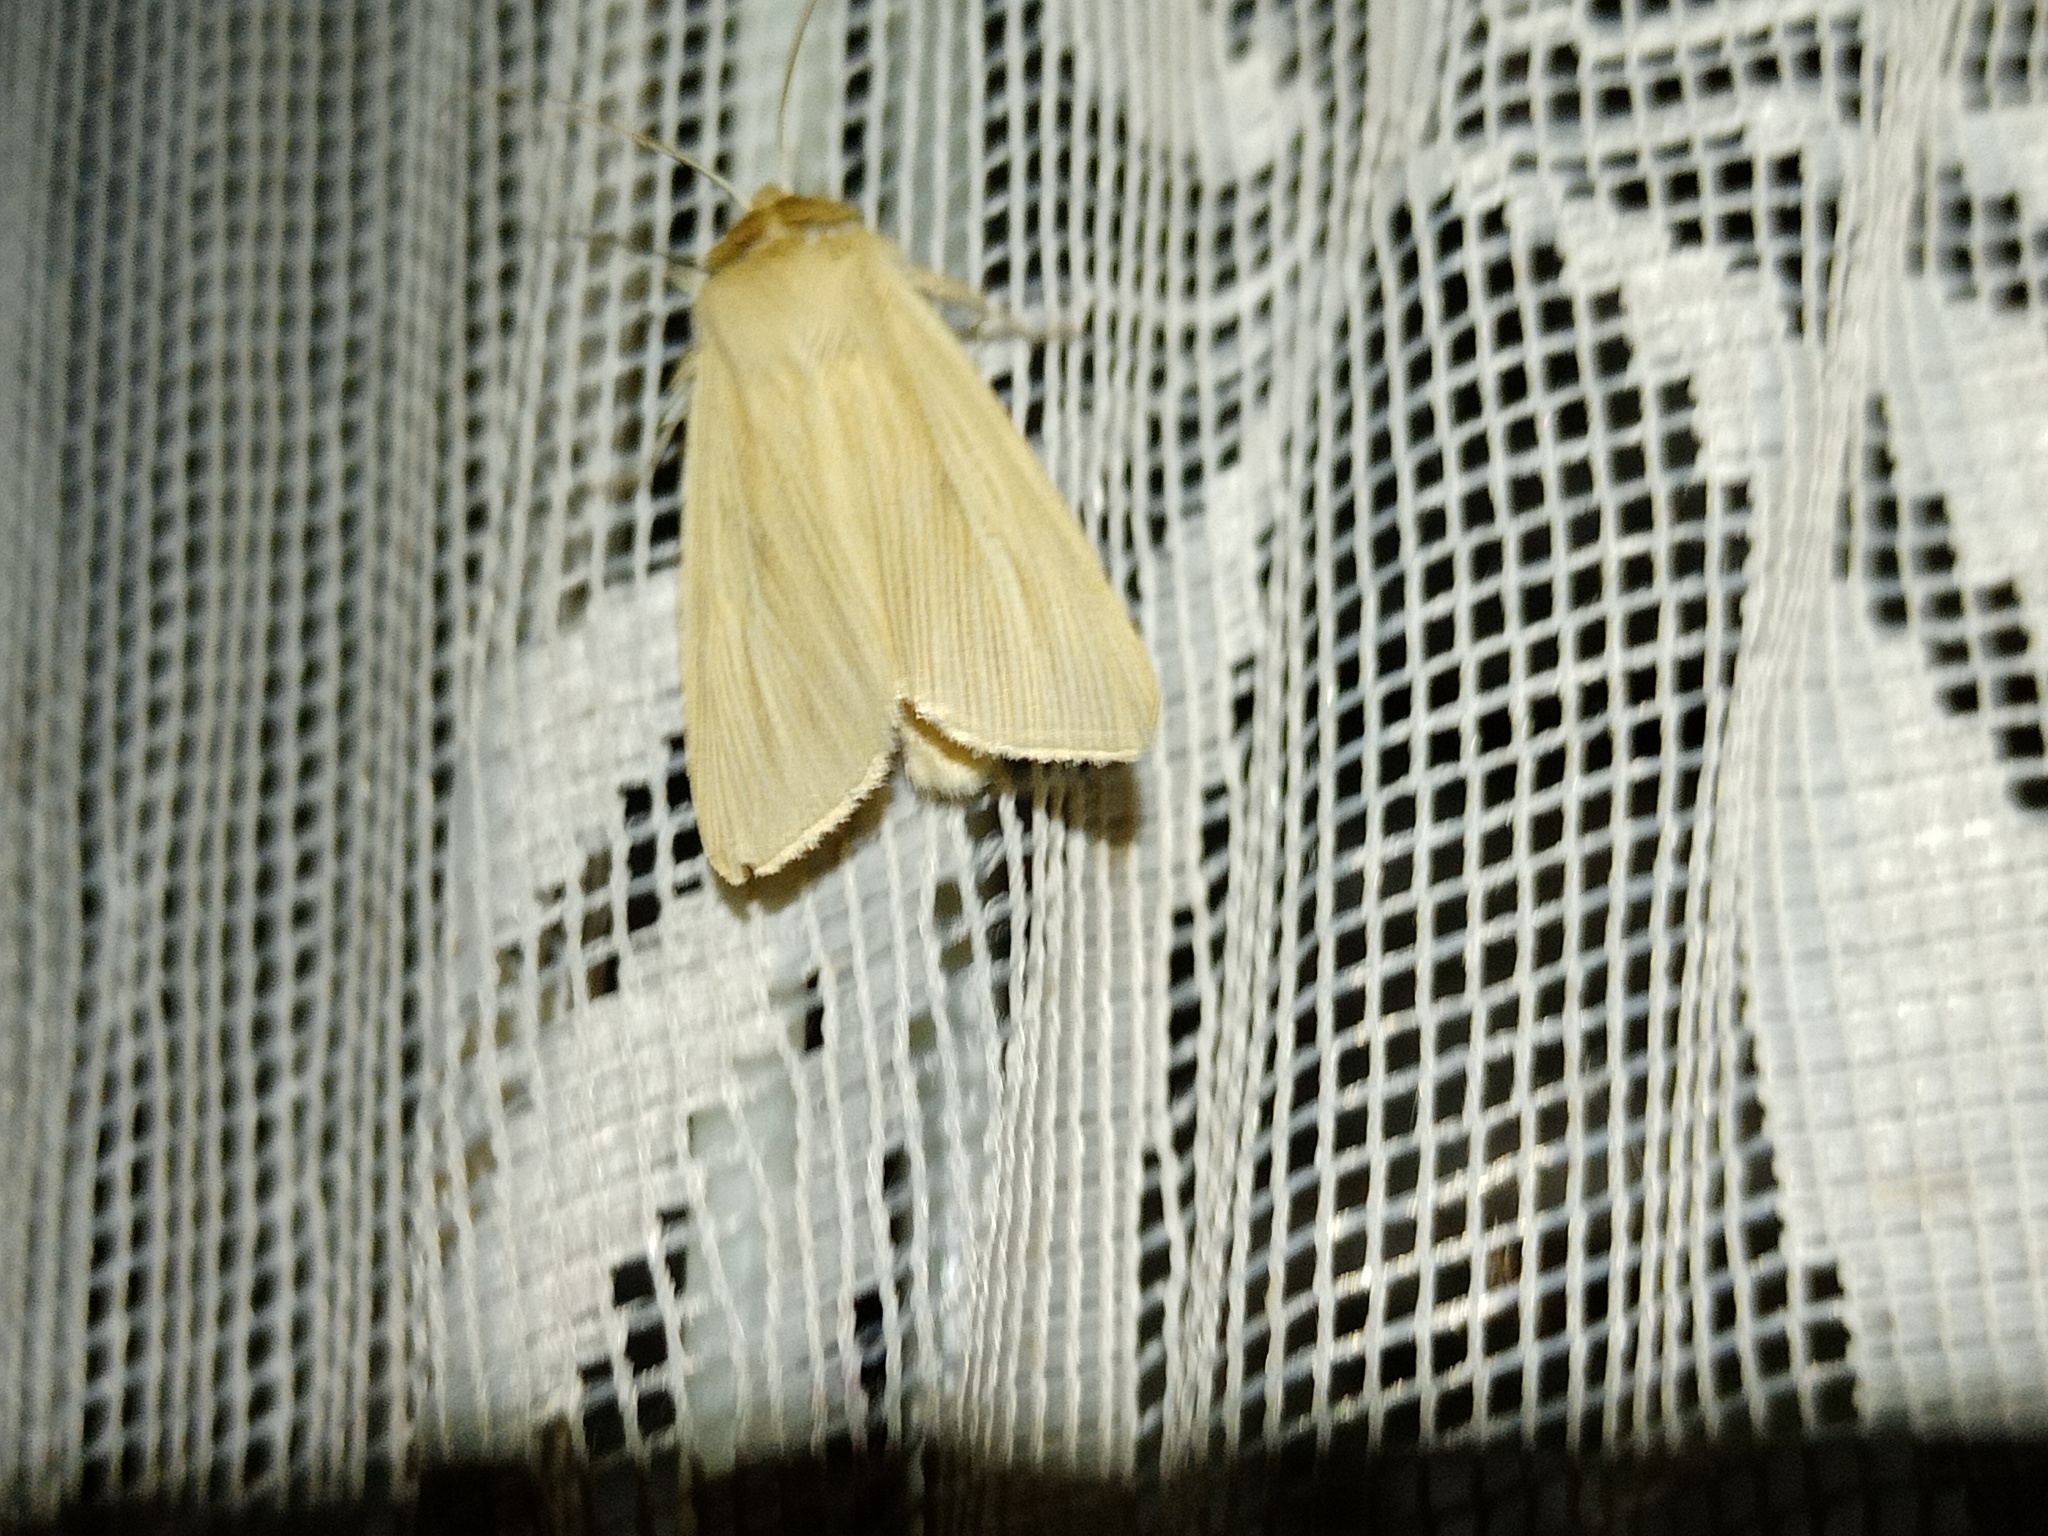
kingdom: Animalia
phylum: Arthropoda
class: Insecta
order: Lepidoptera
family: Noctuidae
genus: Mythimna
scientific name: Mythimna pallens
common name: Common wainscot
